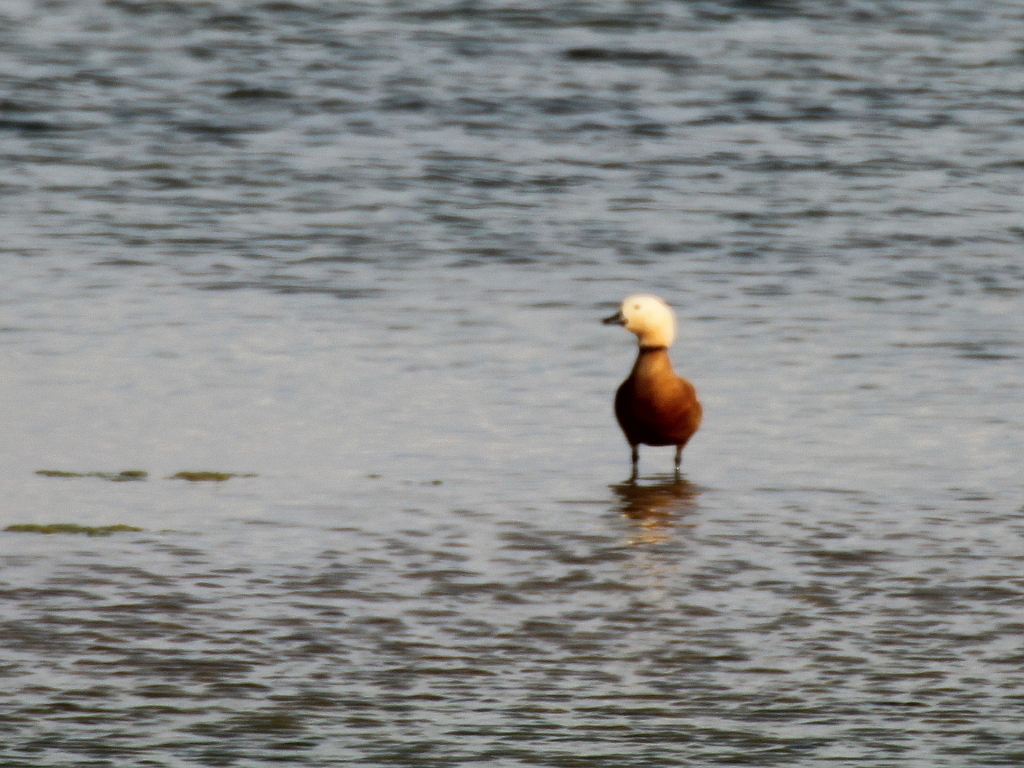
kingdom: Animalia
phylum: Chordata
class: Aves
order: Anseriformes
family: Anatidae
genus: Tadorna
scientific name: Tadorna ferruginea
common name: Ruddy shelduck
